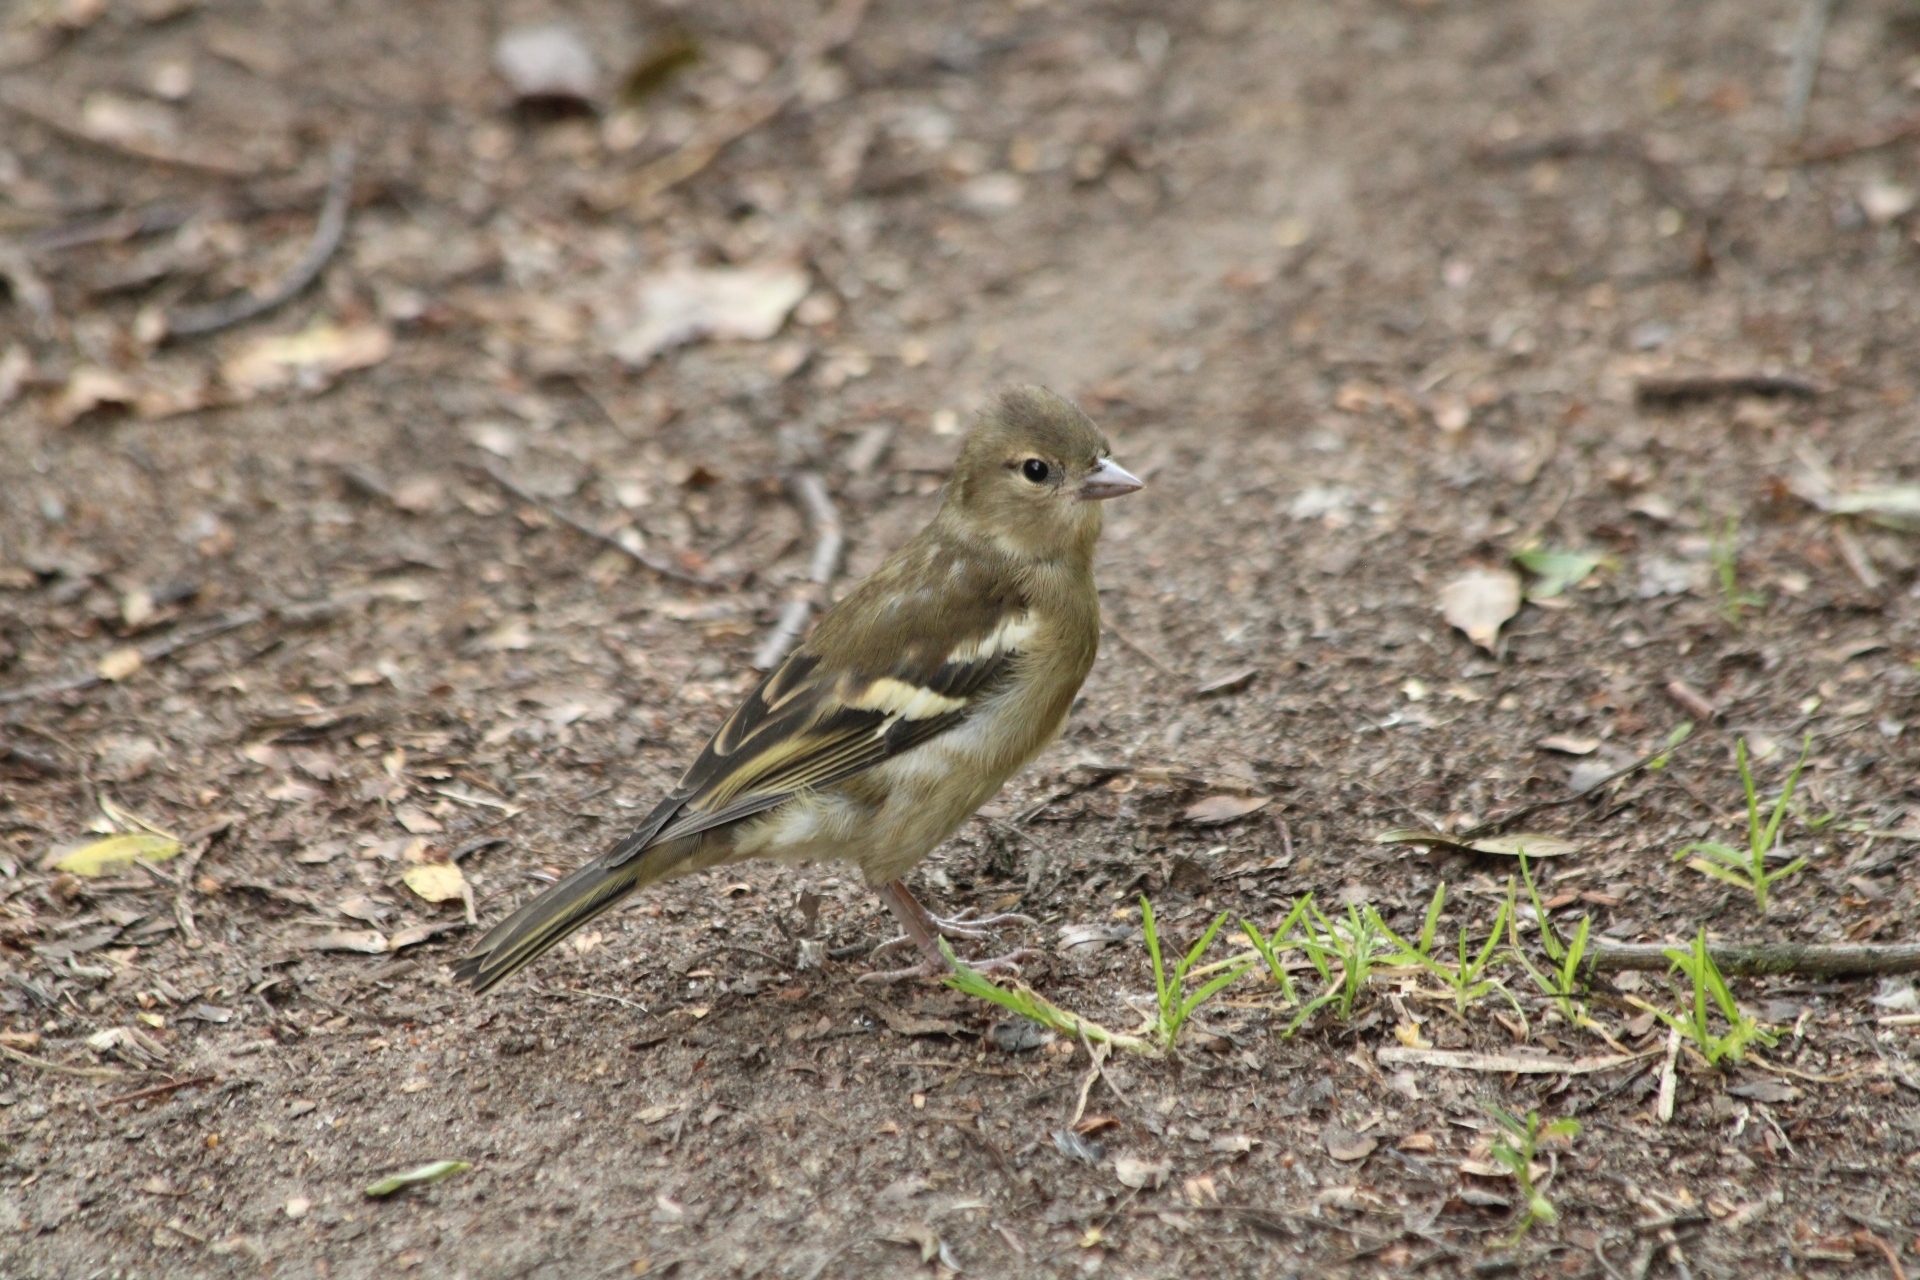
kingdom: Animalia
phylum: Chordata
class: Aves
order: Passeriformes
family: Fringillidae
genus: Fringilla
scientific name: Fringilla coelebs
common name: Common chaffinch
